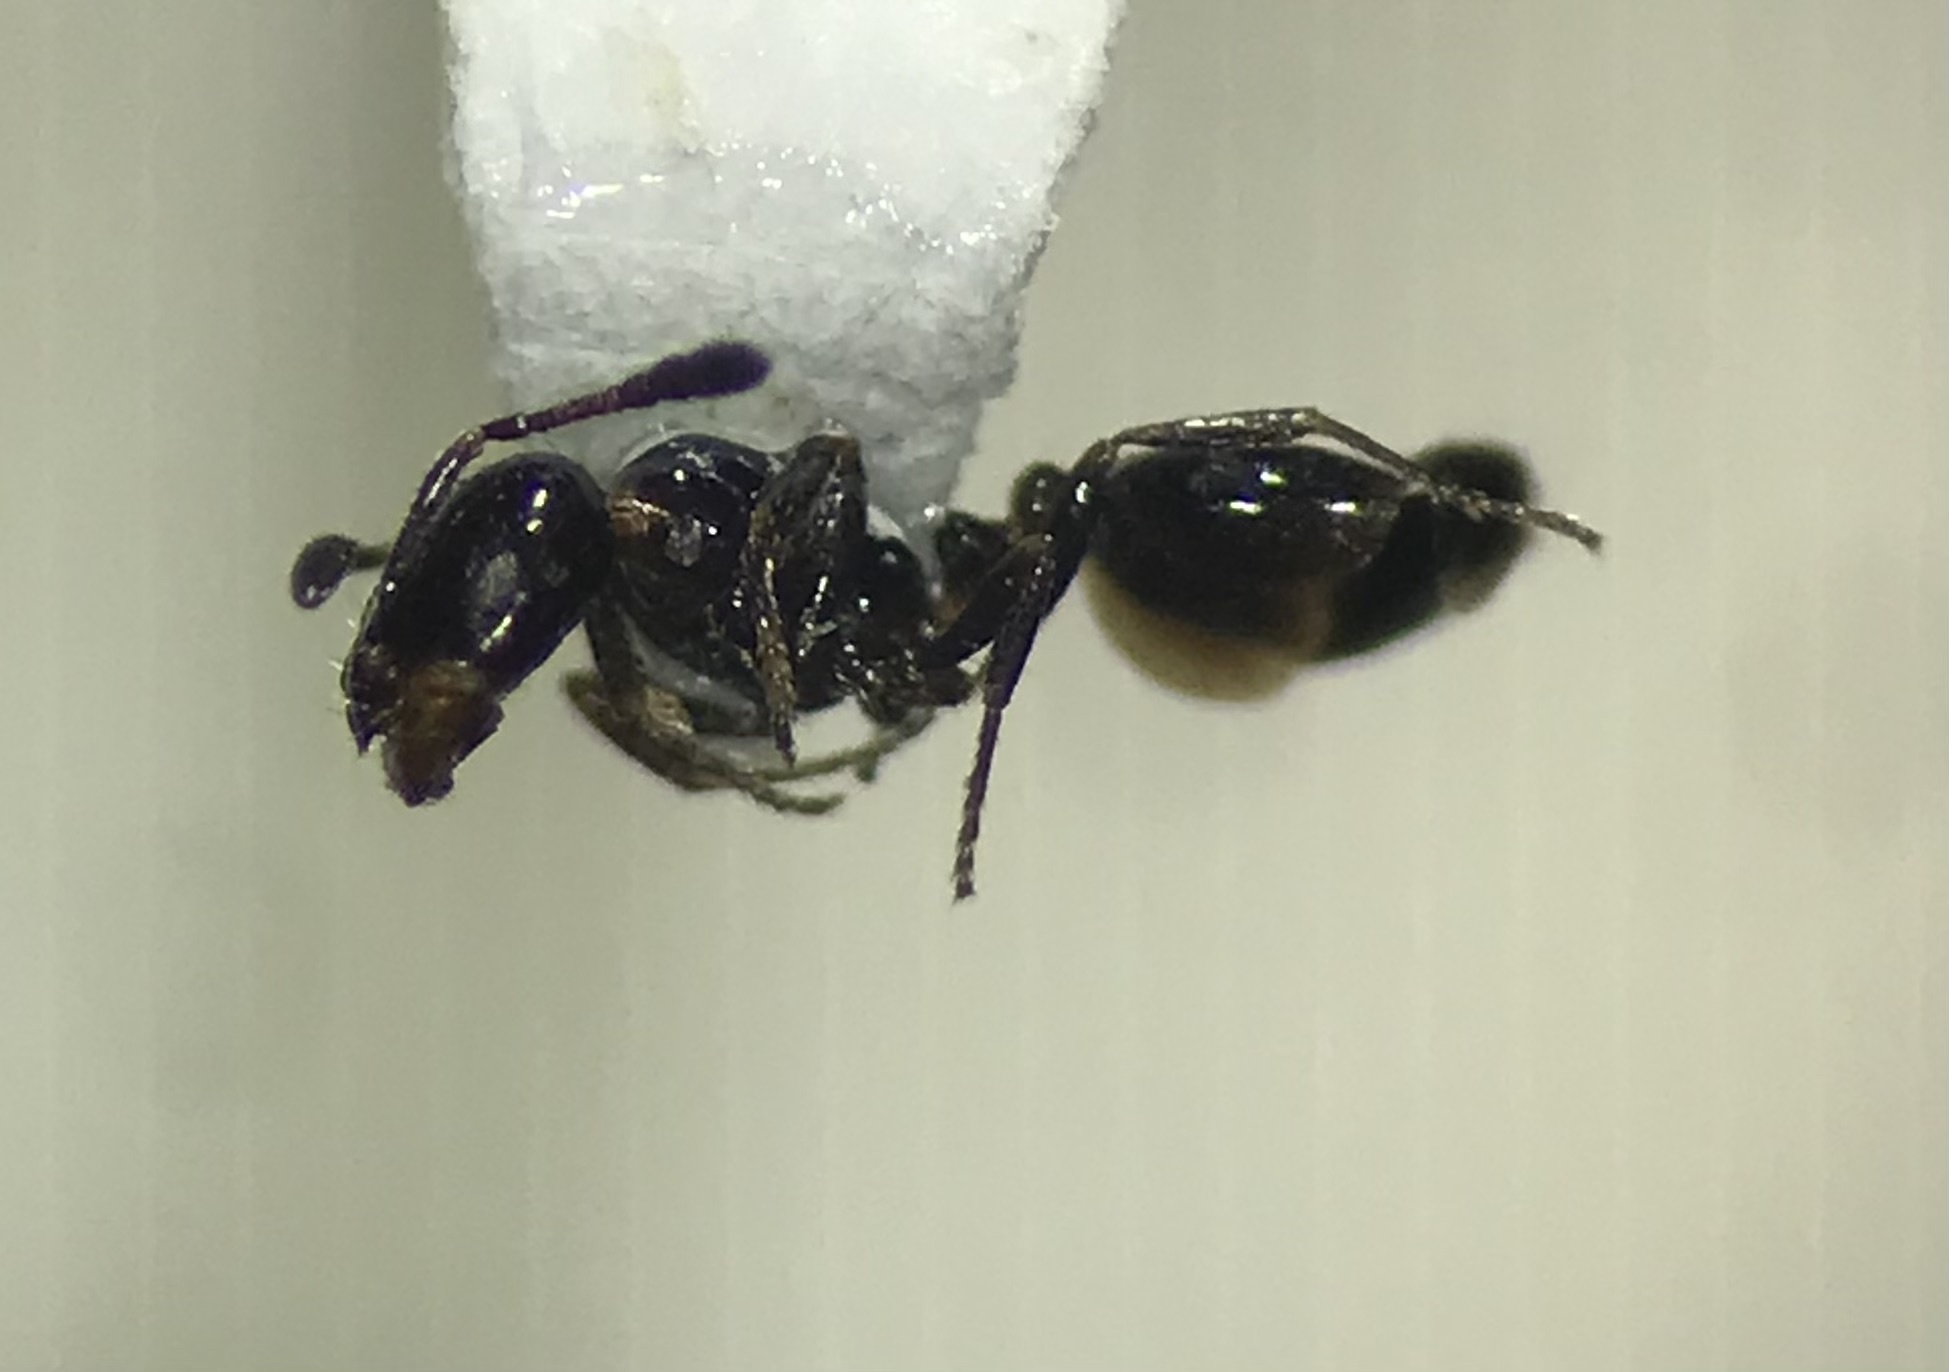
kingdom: Animalia
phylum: Arthropoda
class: Insecta
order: Hymenoptera
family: Formicidae
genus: Monomorium
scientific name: Monomorium minimum
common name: Little black ant
